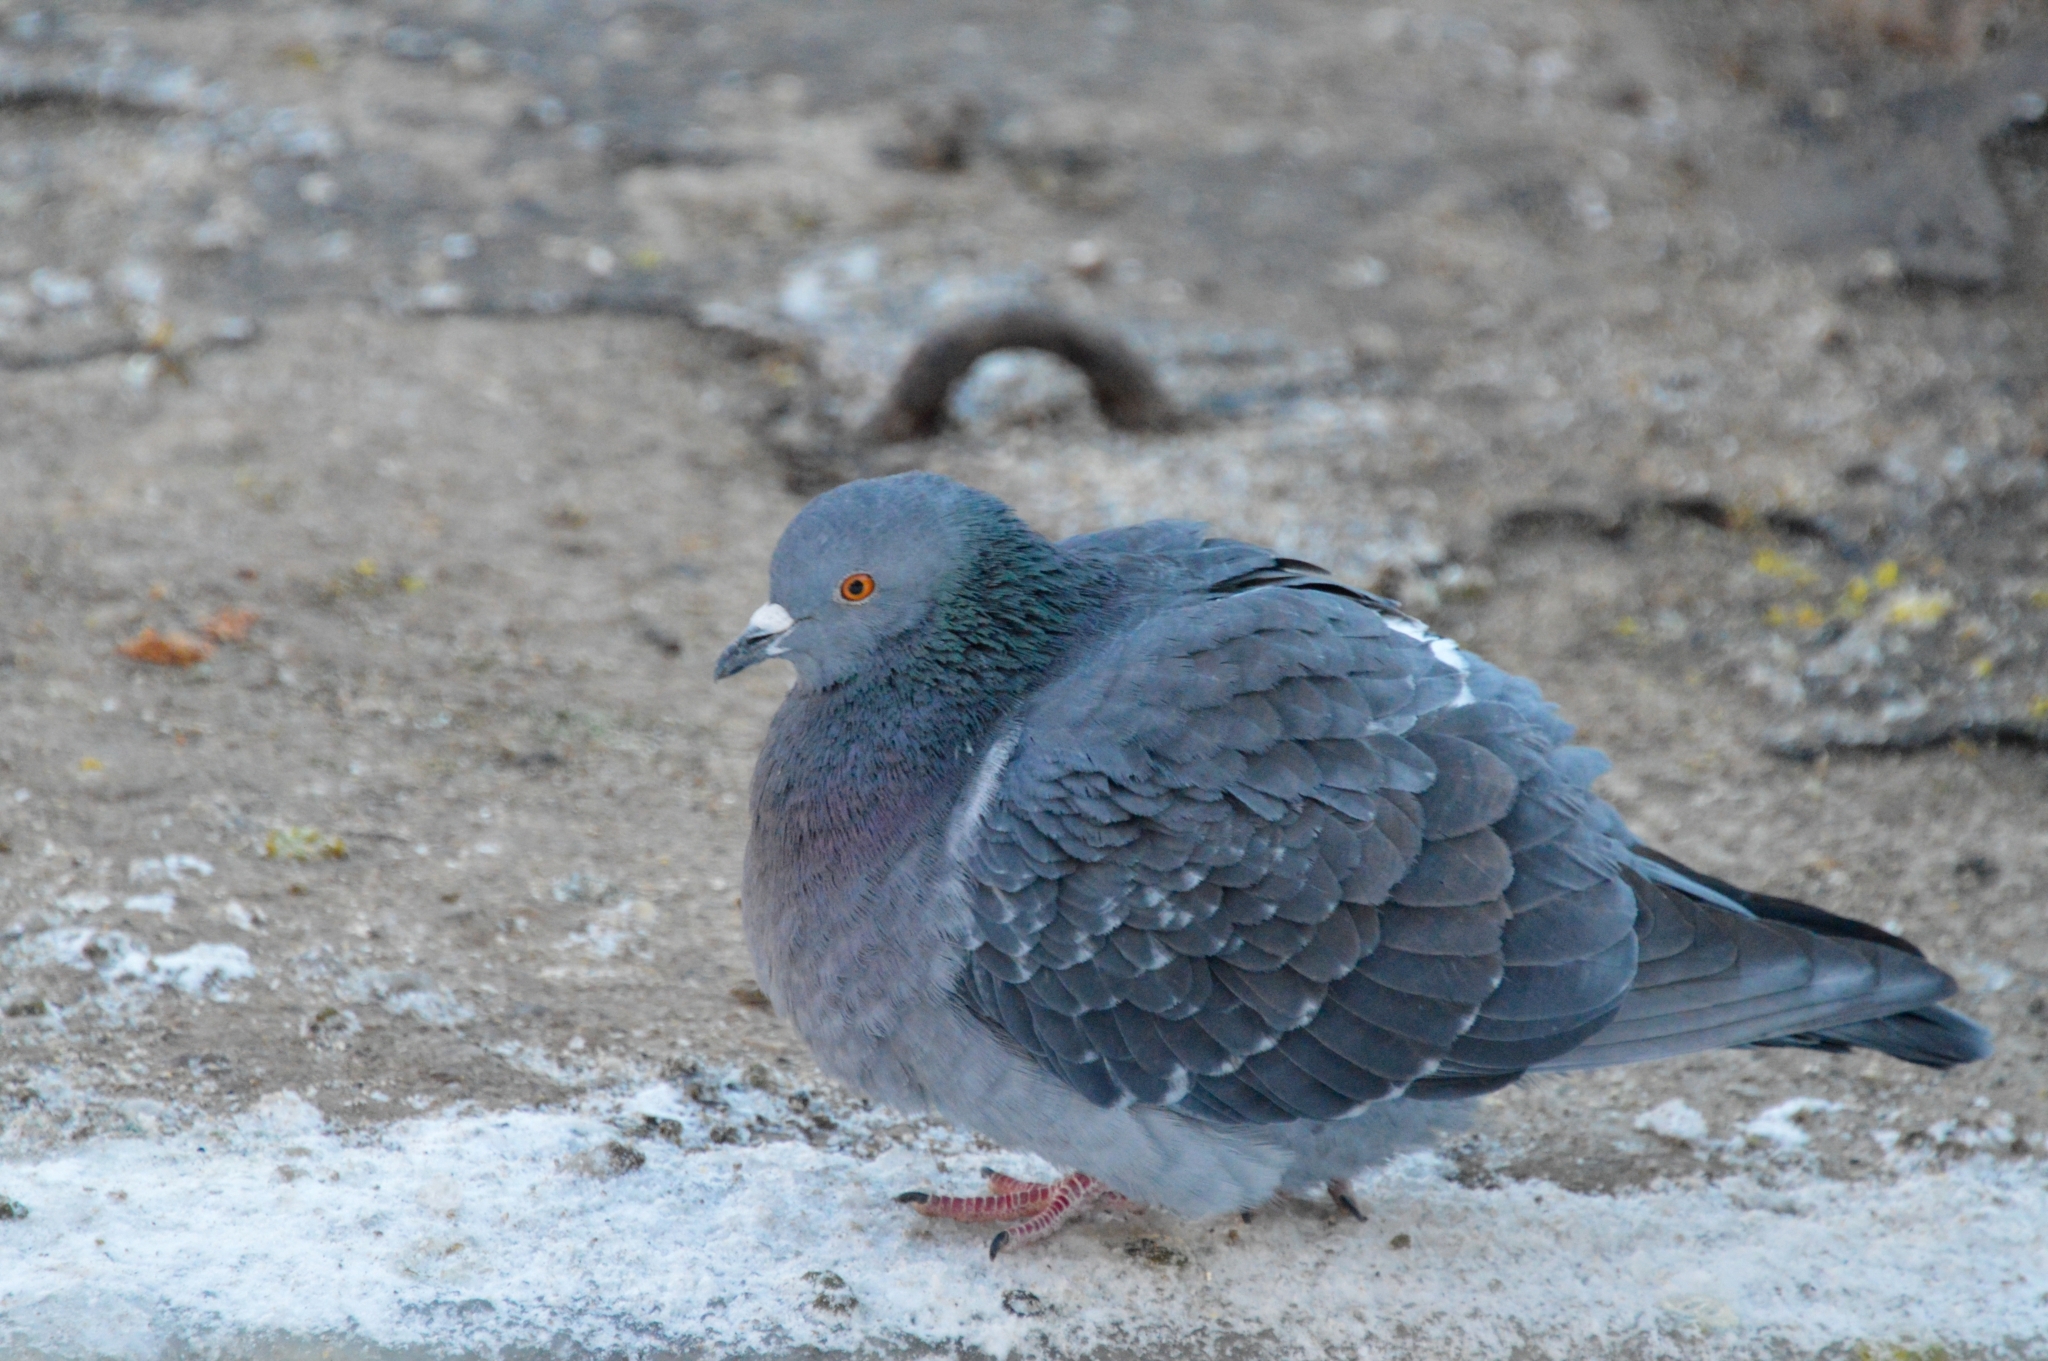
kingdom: Animalia
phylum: Chordata
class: Aves
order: Columbiformes
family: Columbidae
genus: Columba
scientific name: Columba livia
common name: Rock pigeon
